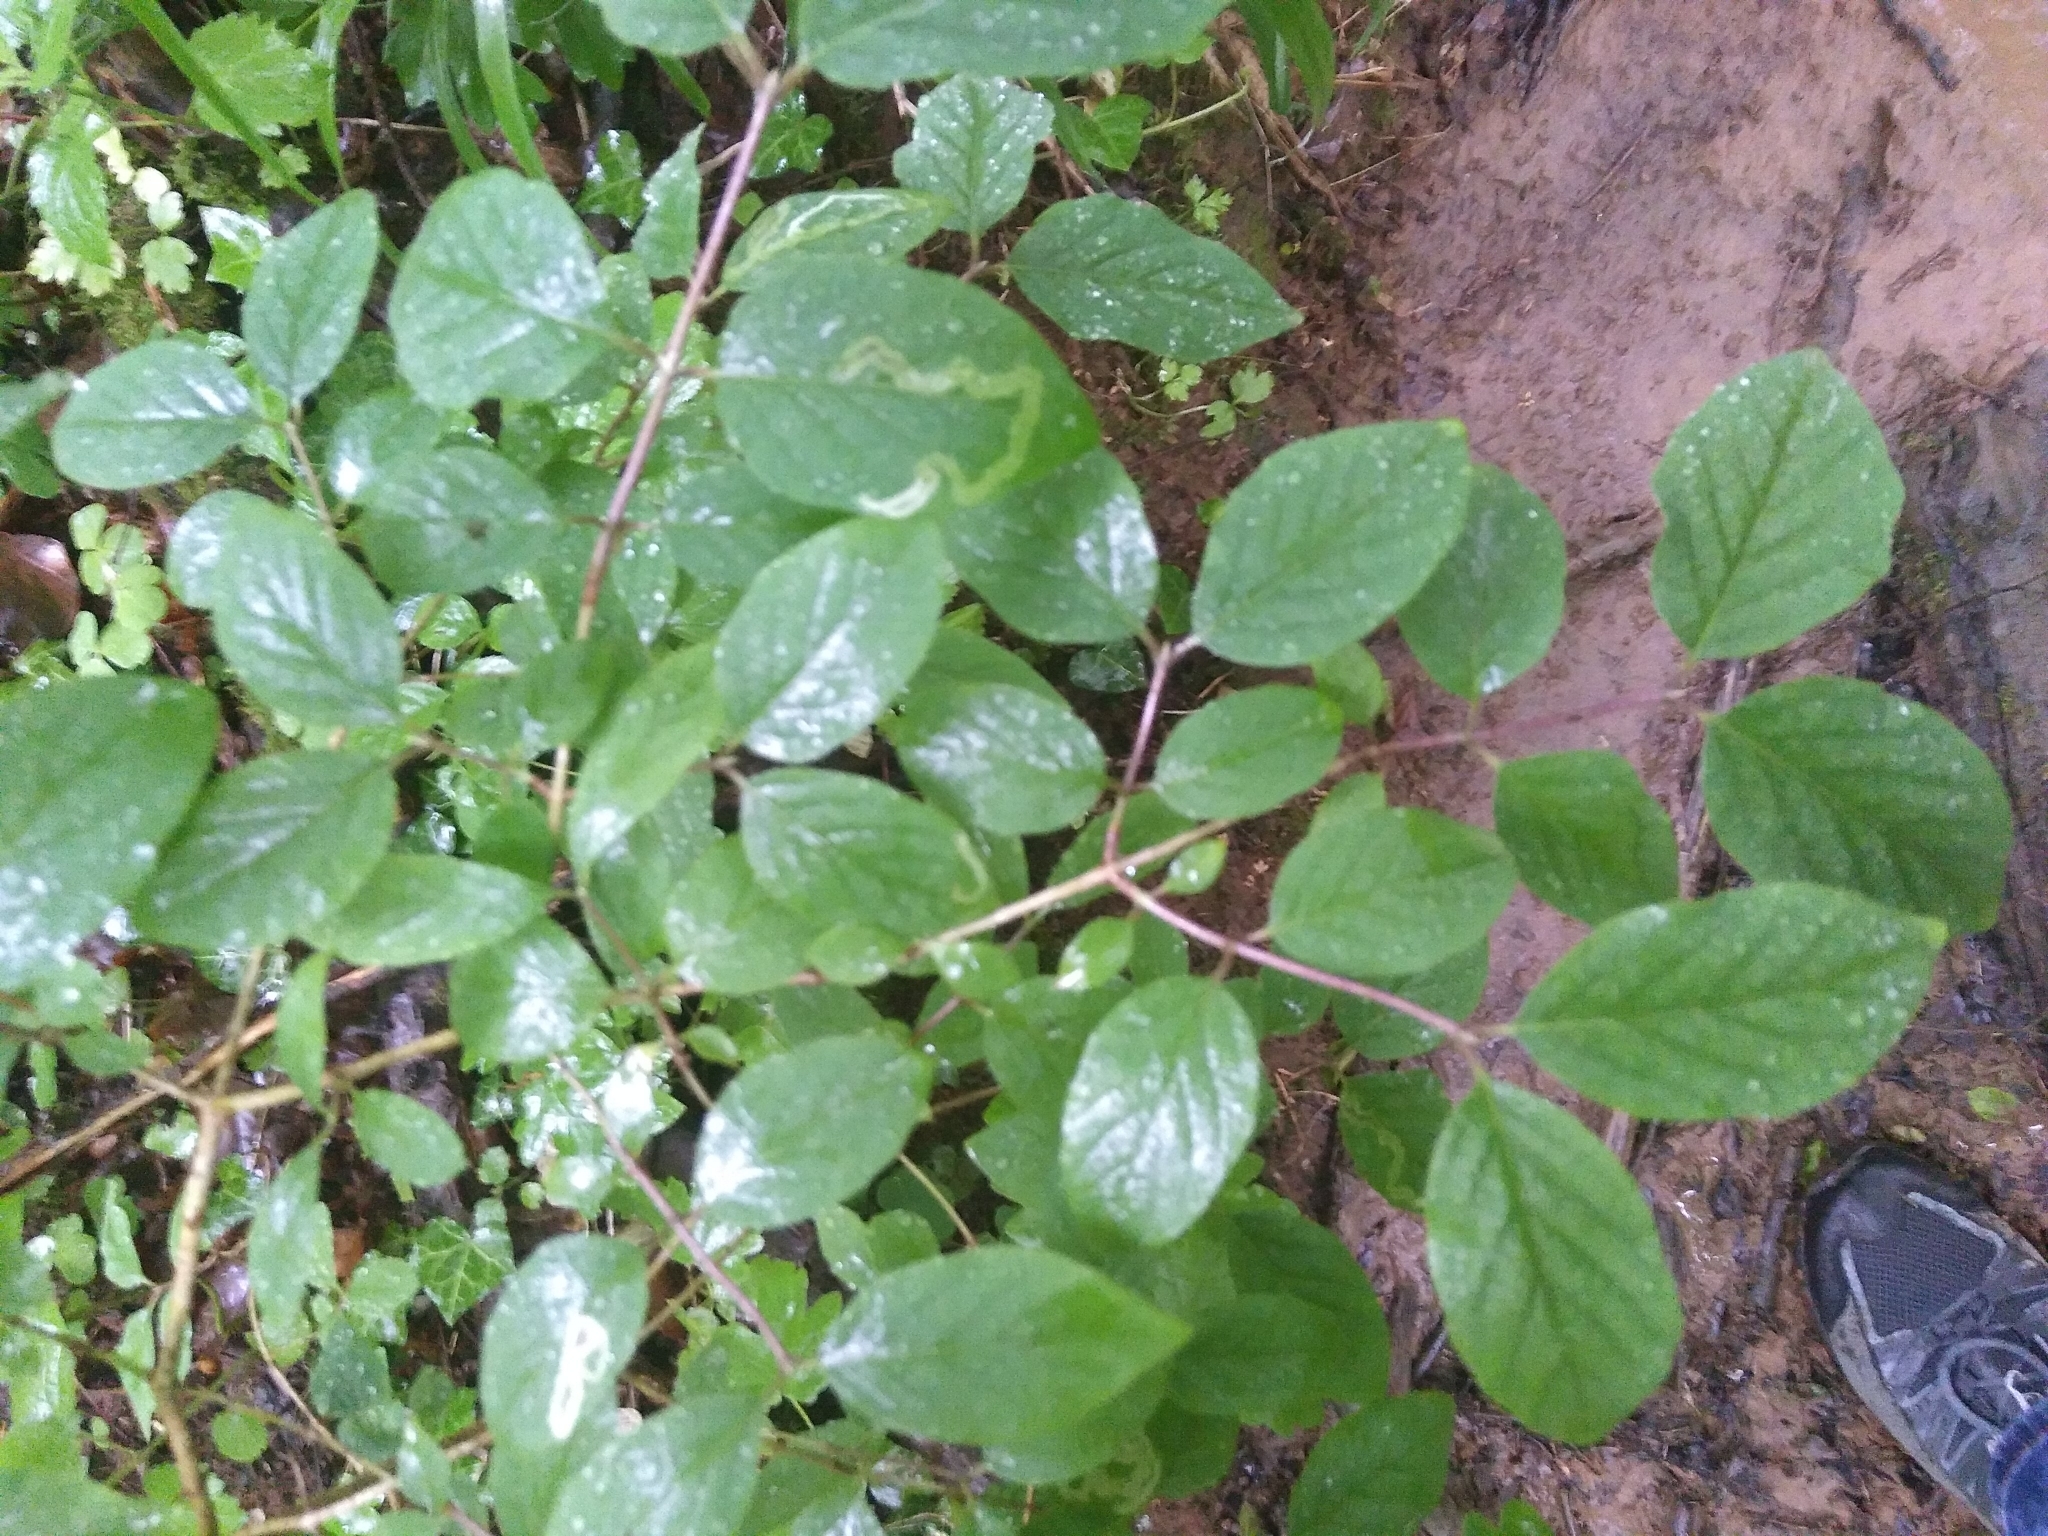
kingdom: Plantae
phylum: Tracheophyta
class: Magnoliopsida
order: Dipsacales
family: Caprifoliaceae
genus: Lonicera
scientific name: Lonicera xylosteum
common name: Fly honeysuckle
